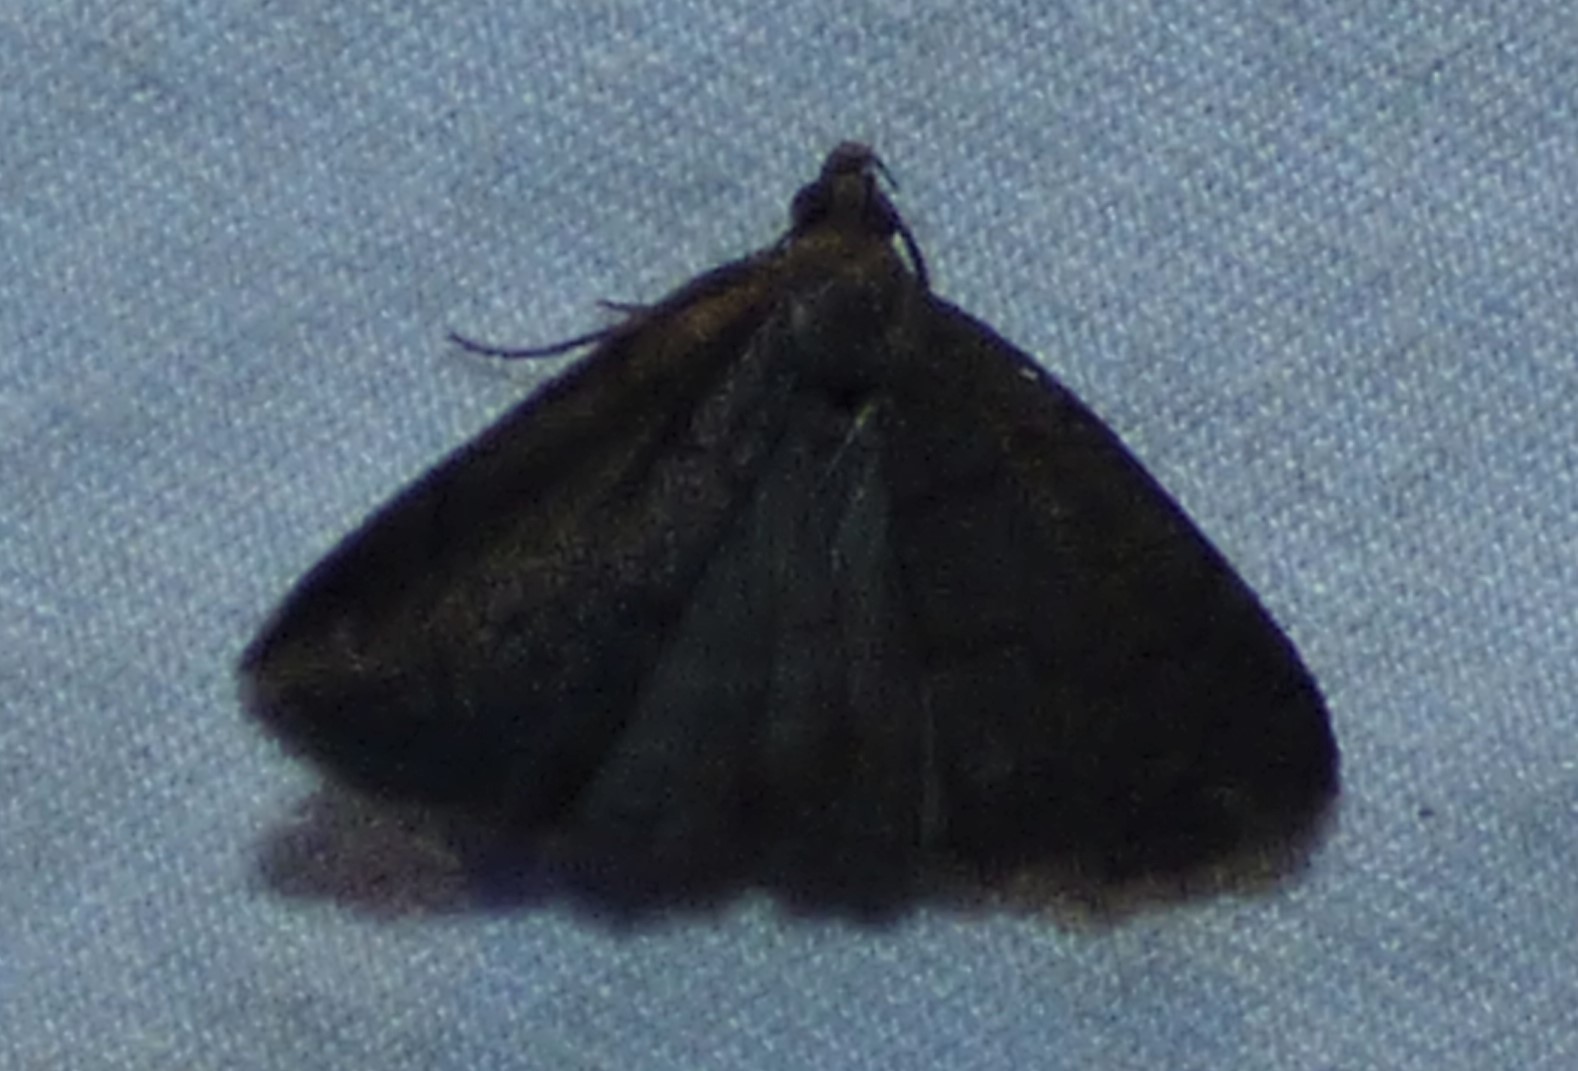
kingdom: Animalia
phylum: Arthropoda
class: Insecta
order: Lepidoptera
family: Erebidae
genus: Idia
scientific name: Idia rotundalis
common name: Rotund idia moth
